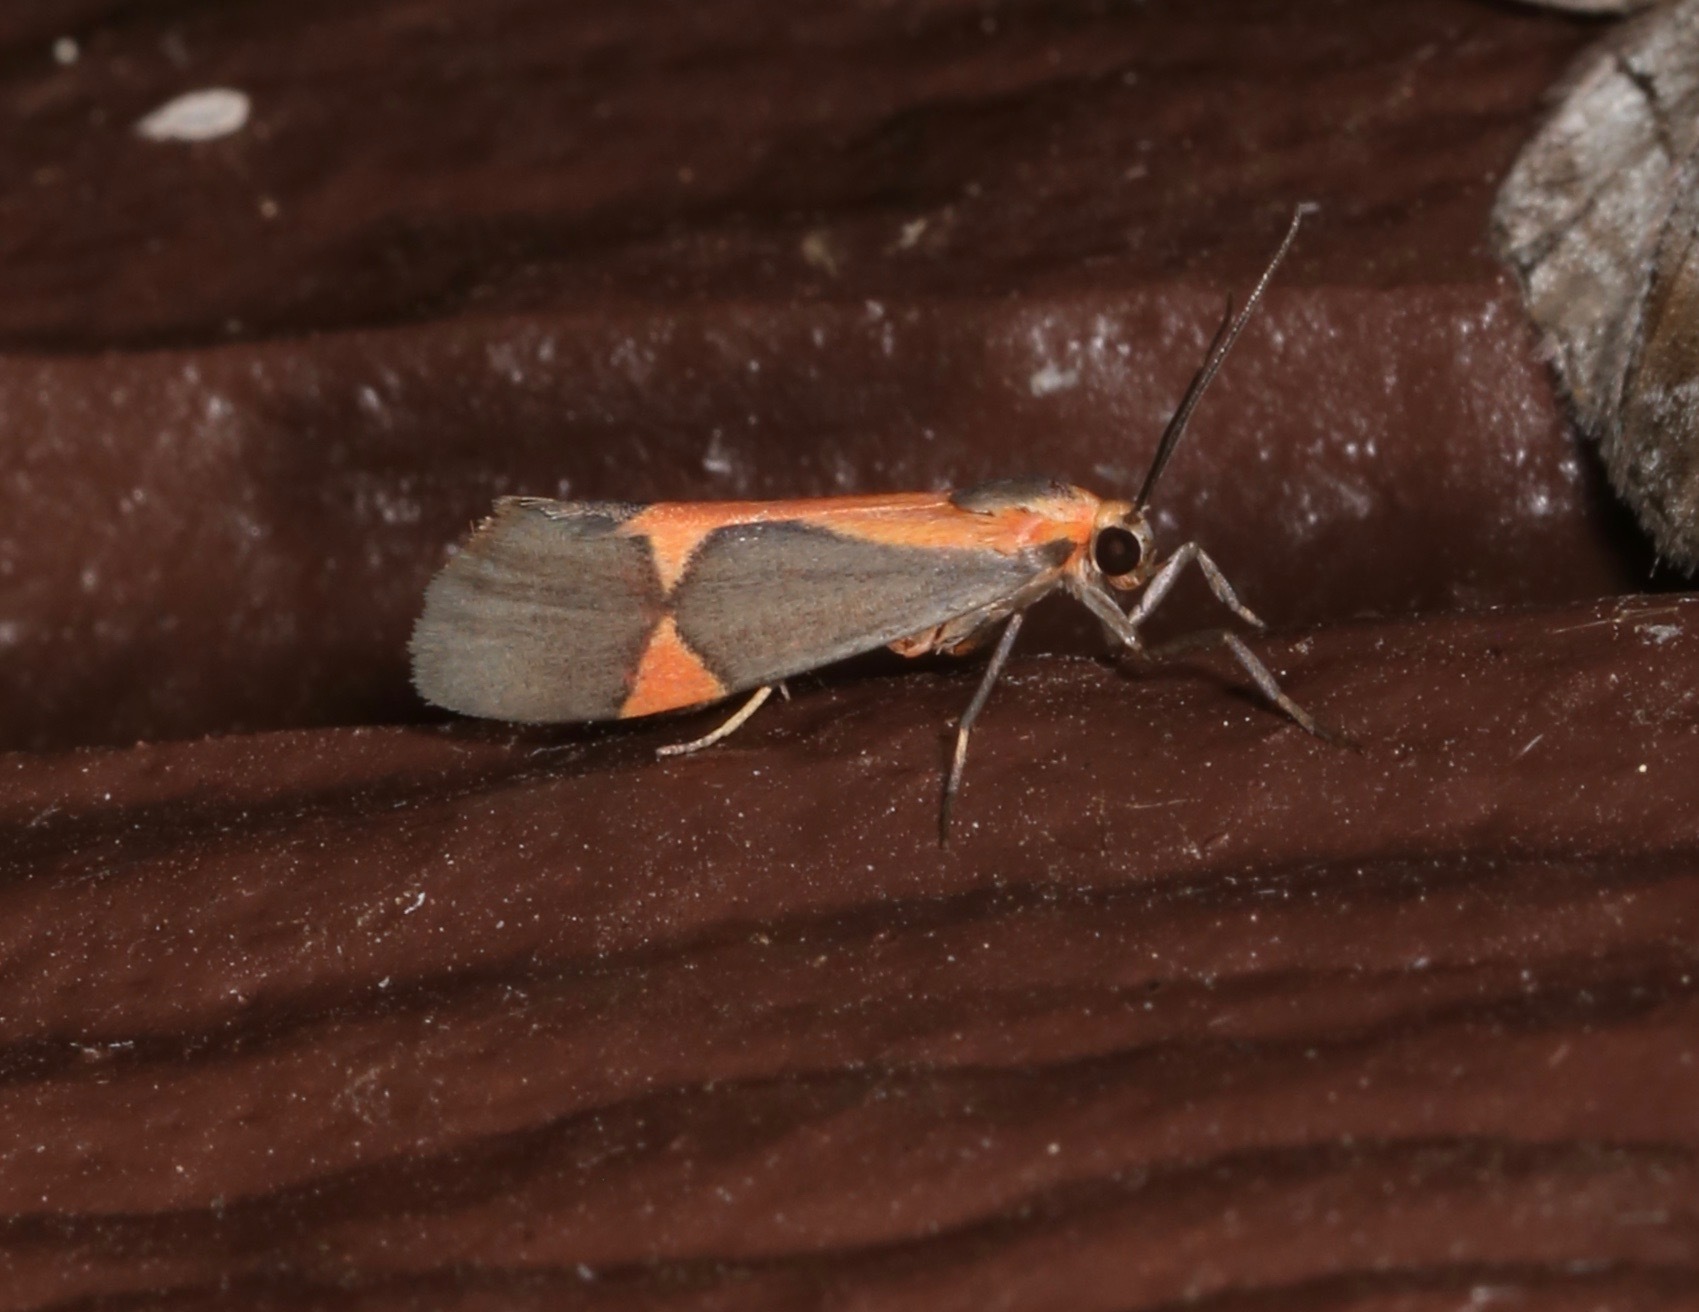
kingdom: Animalia
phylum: Arthropoda
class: Insecta
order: Lepidoptera
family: Erebidae
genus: Cisthene
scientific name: Cisthene martini
